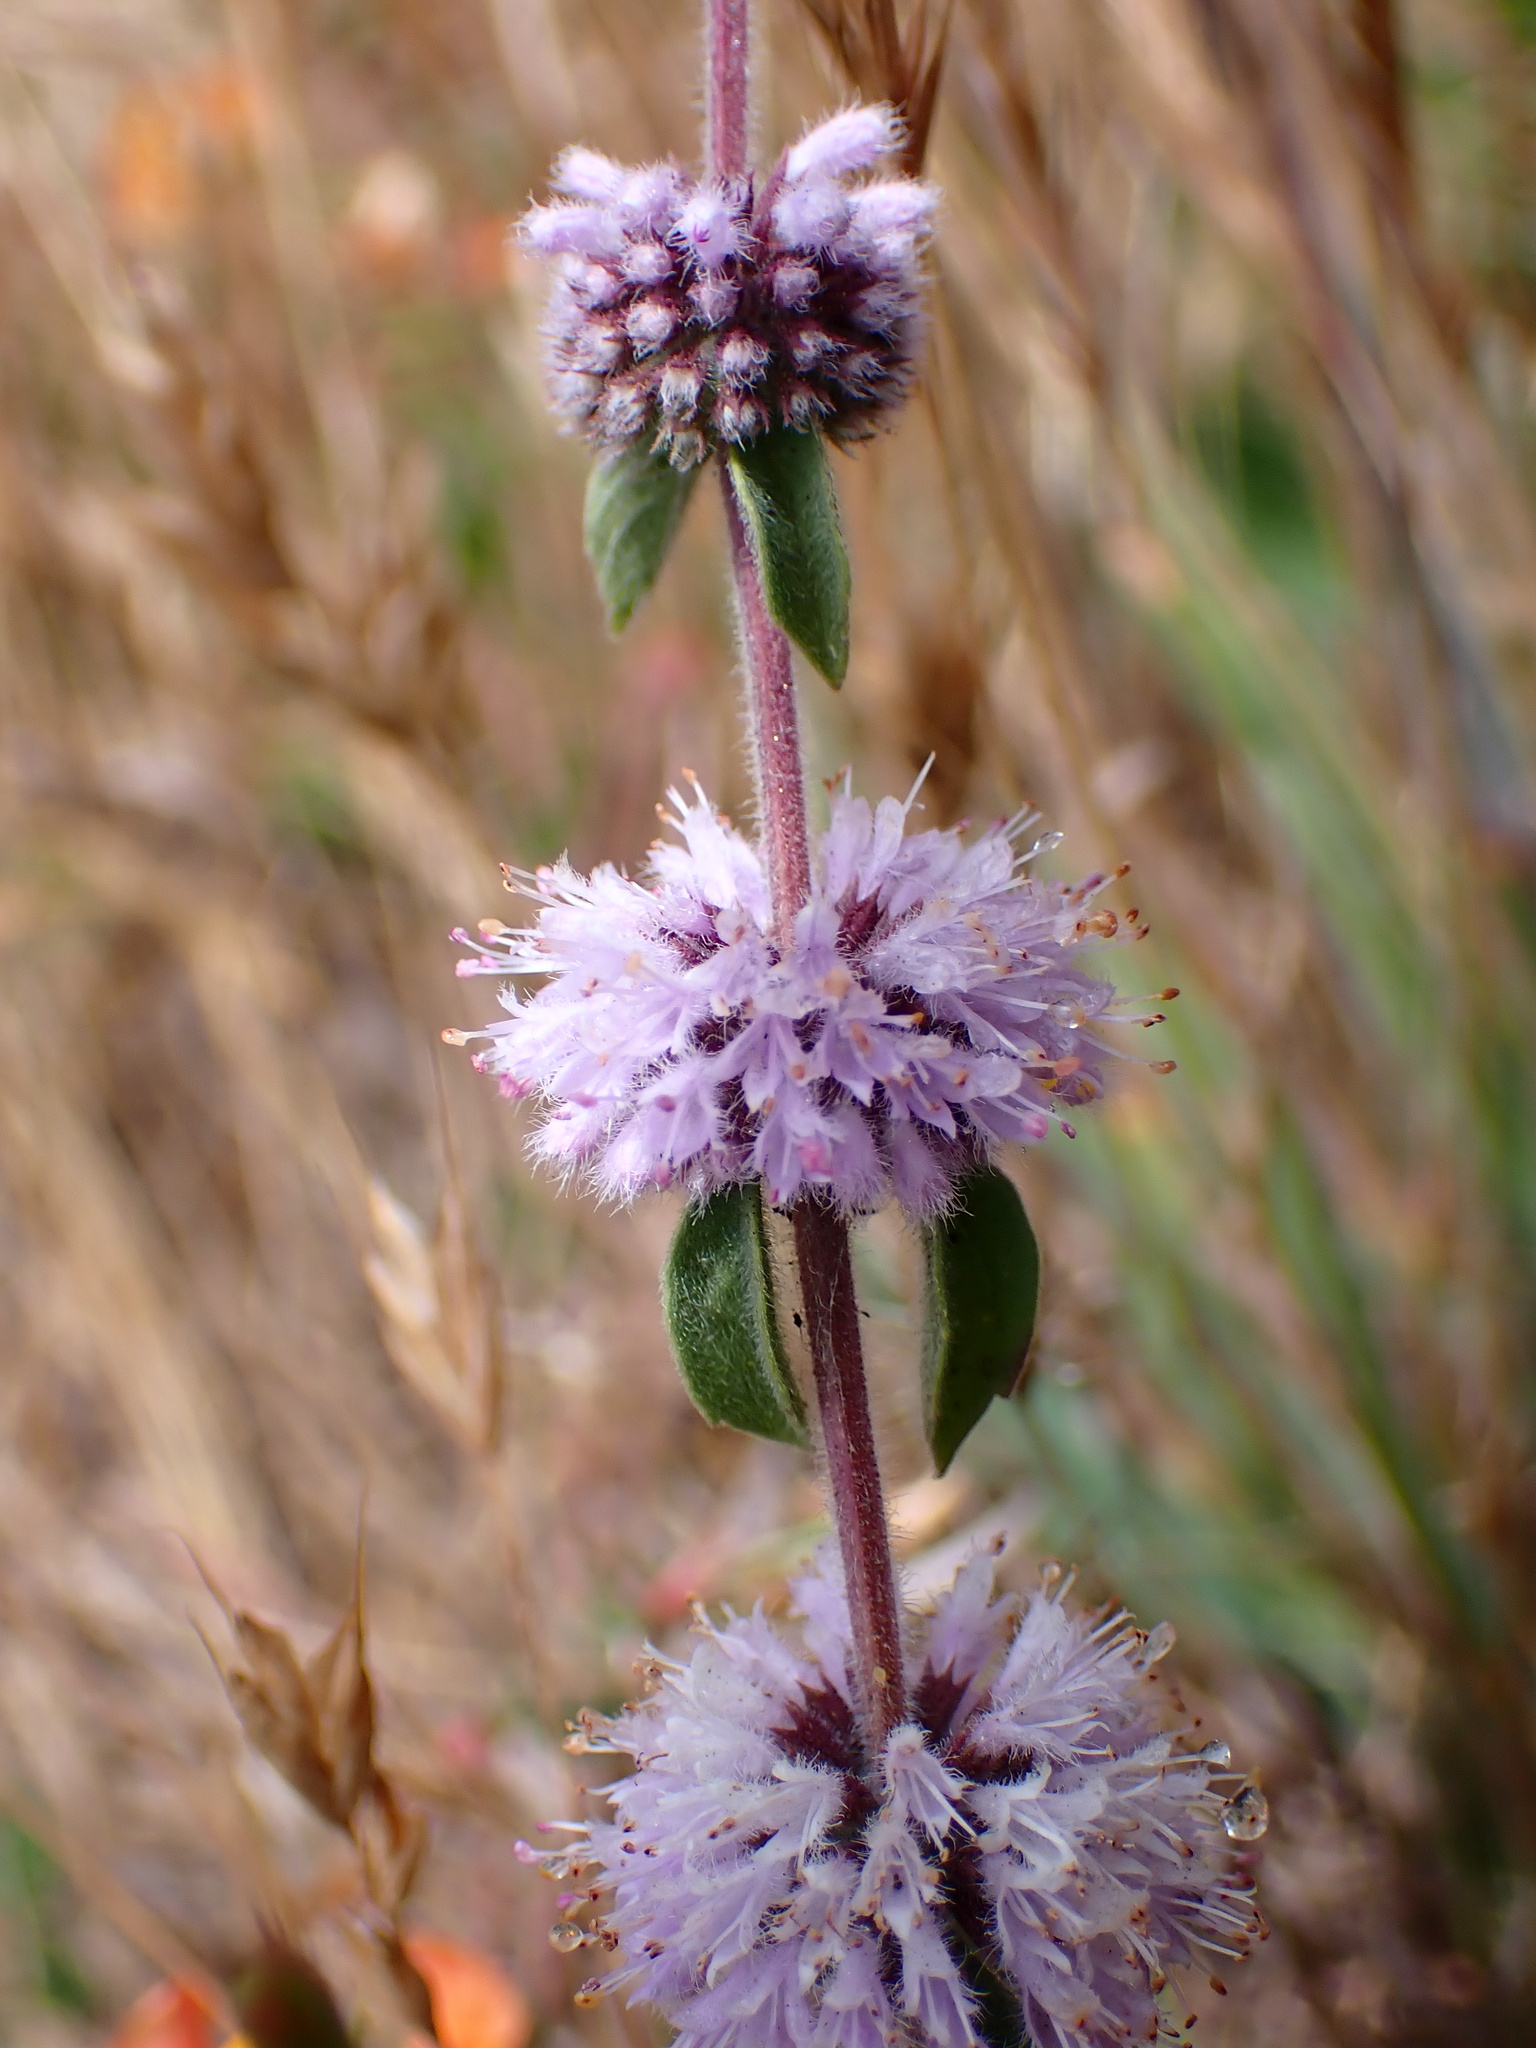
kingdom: Plantae
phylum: Tracheophyta
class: Magnoliopsida
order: Lamiales
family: Lamiaceae
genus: Mentha
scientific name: Mentha pulegium
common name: Pennyroyal
